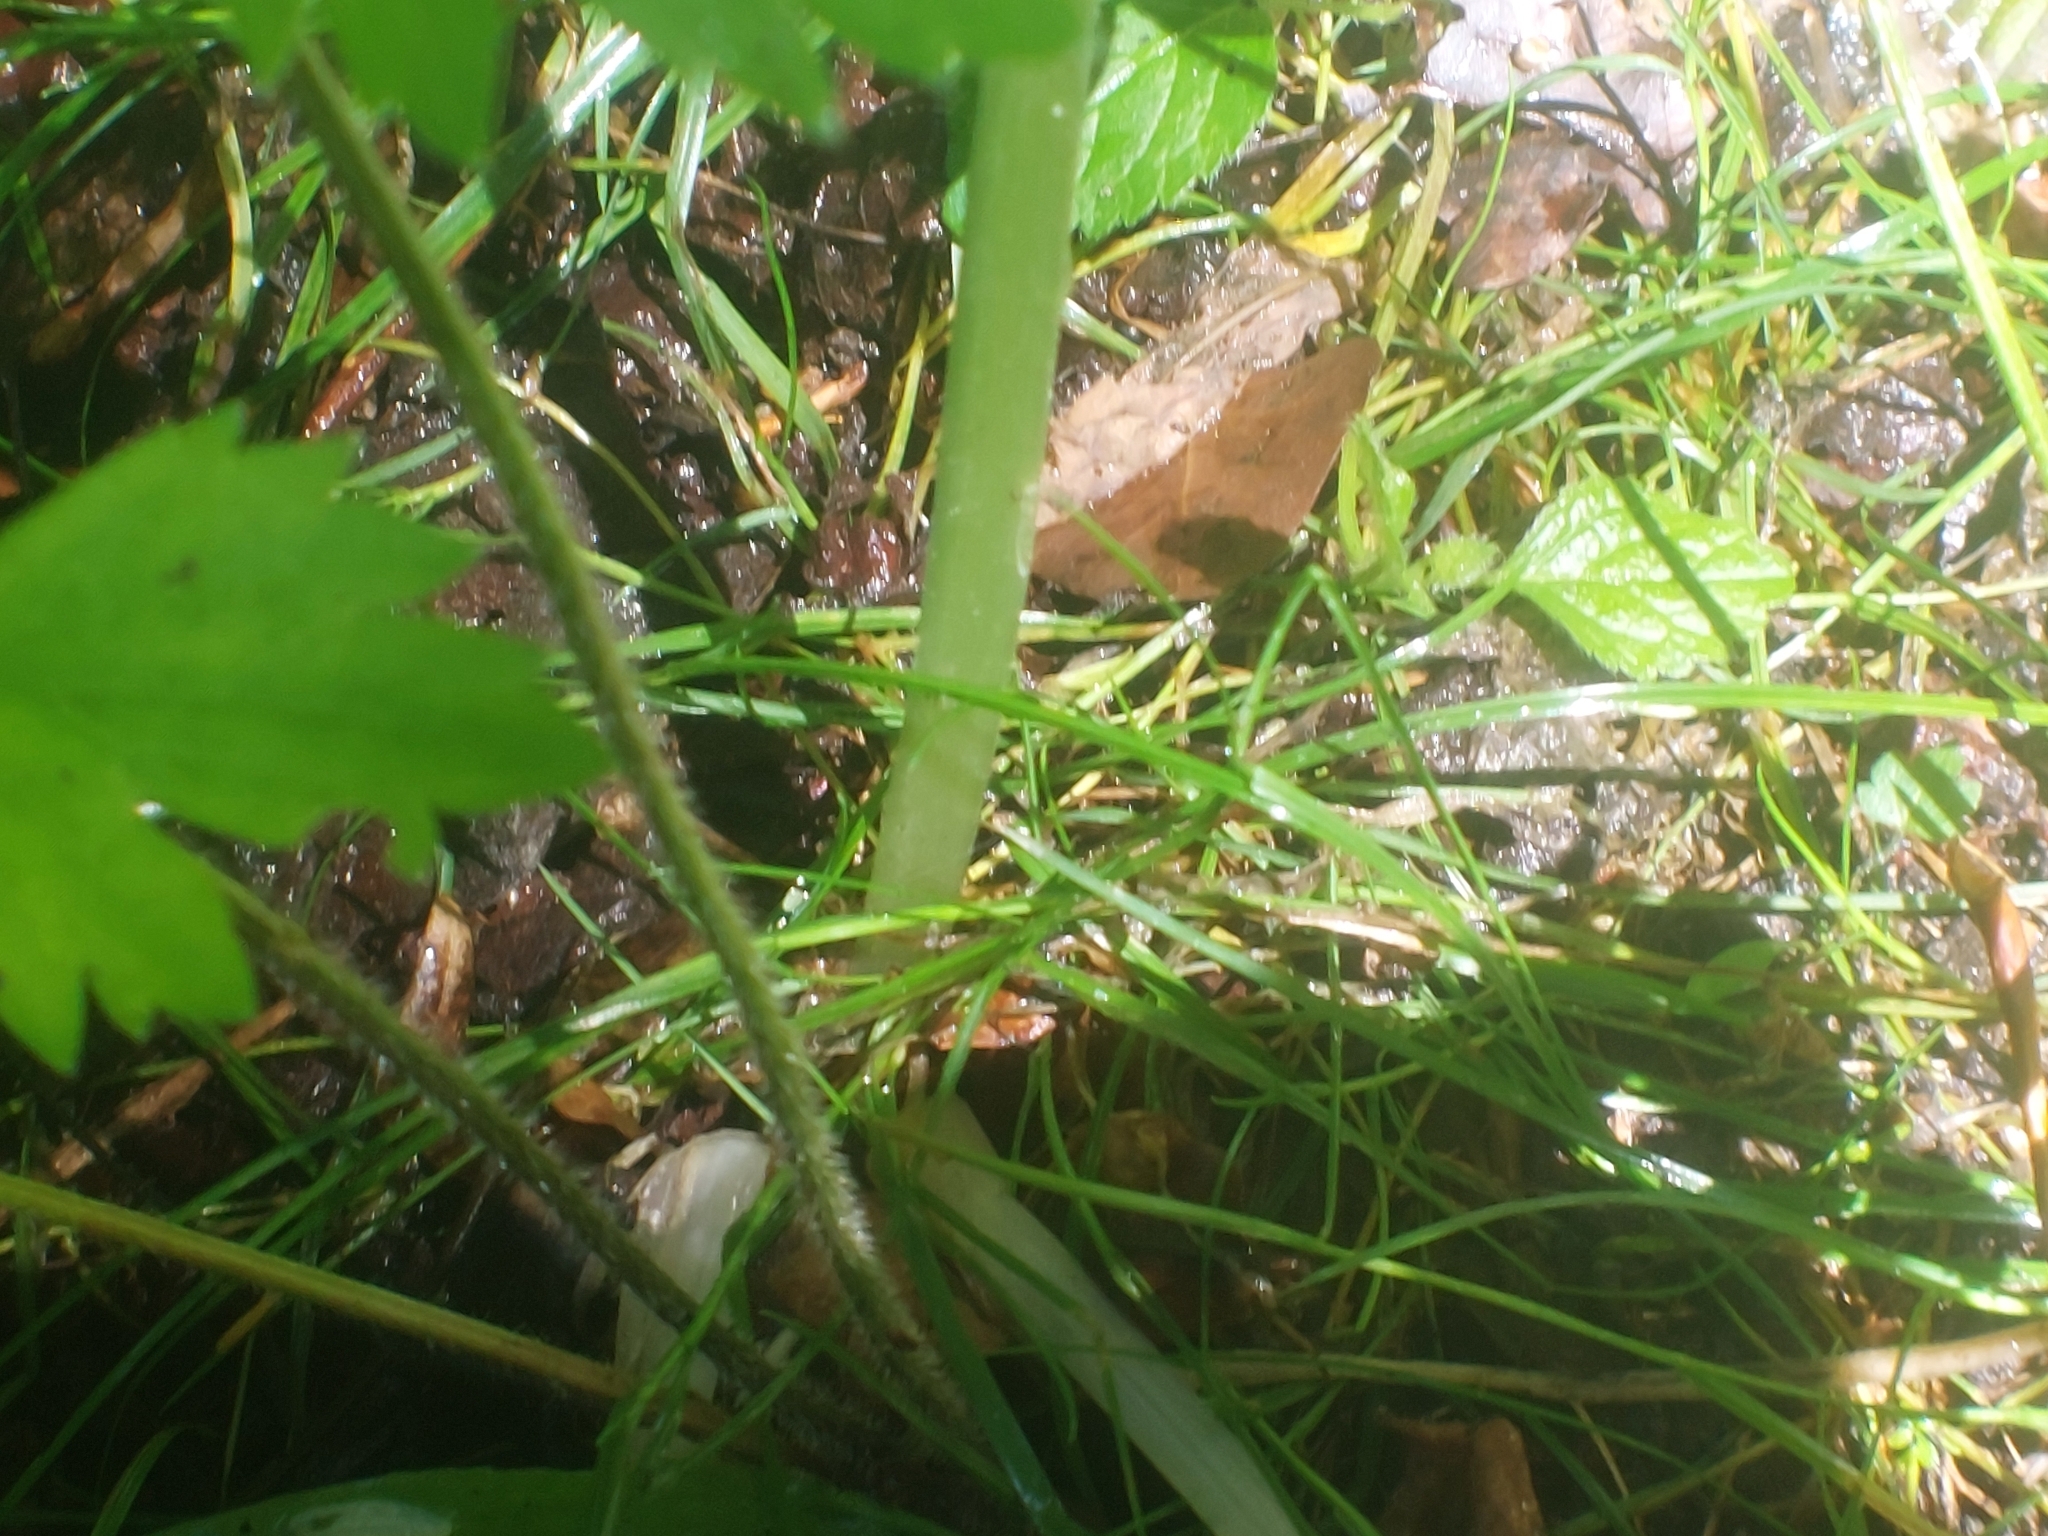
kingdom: Plantae
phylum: Tracheophyta
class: Liliopsida
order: Asparagales
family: Amaryllidaceae
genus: Allium
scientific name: Allium ursinum
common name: Ramsons
